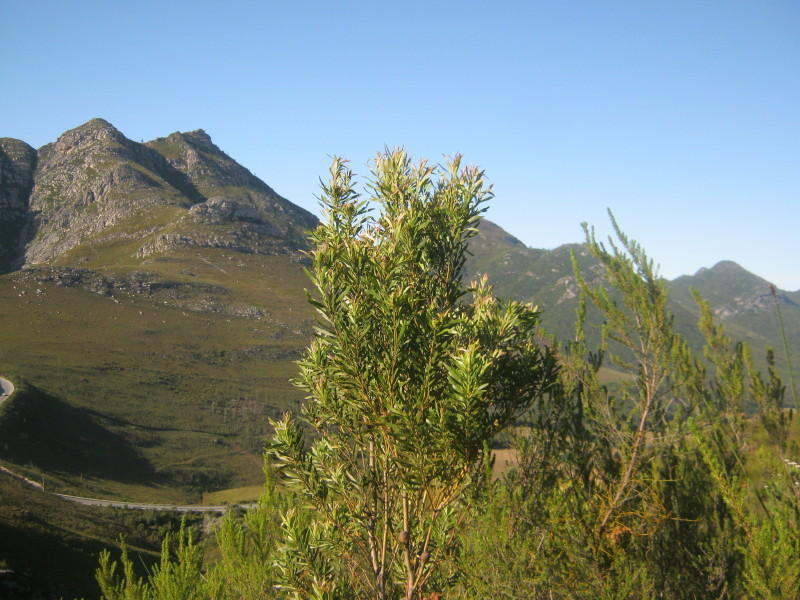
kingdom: Plantae
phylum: Tracheophyta
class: Magnoliopsida
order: Proteales
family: Proteaceae
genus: Leucadendron
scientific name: Leucadendron eucalyptifolium
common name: Gum-leaved conebush
